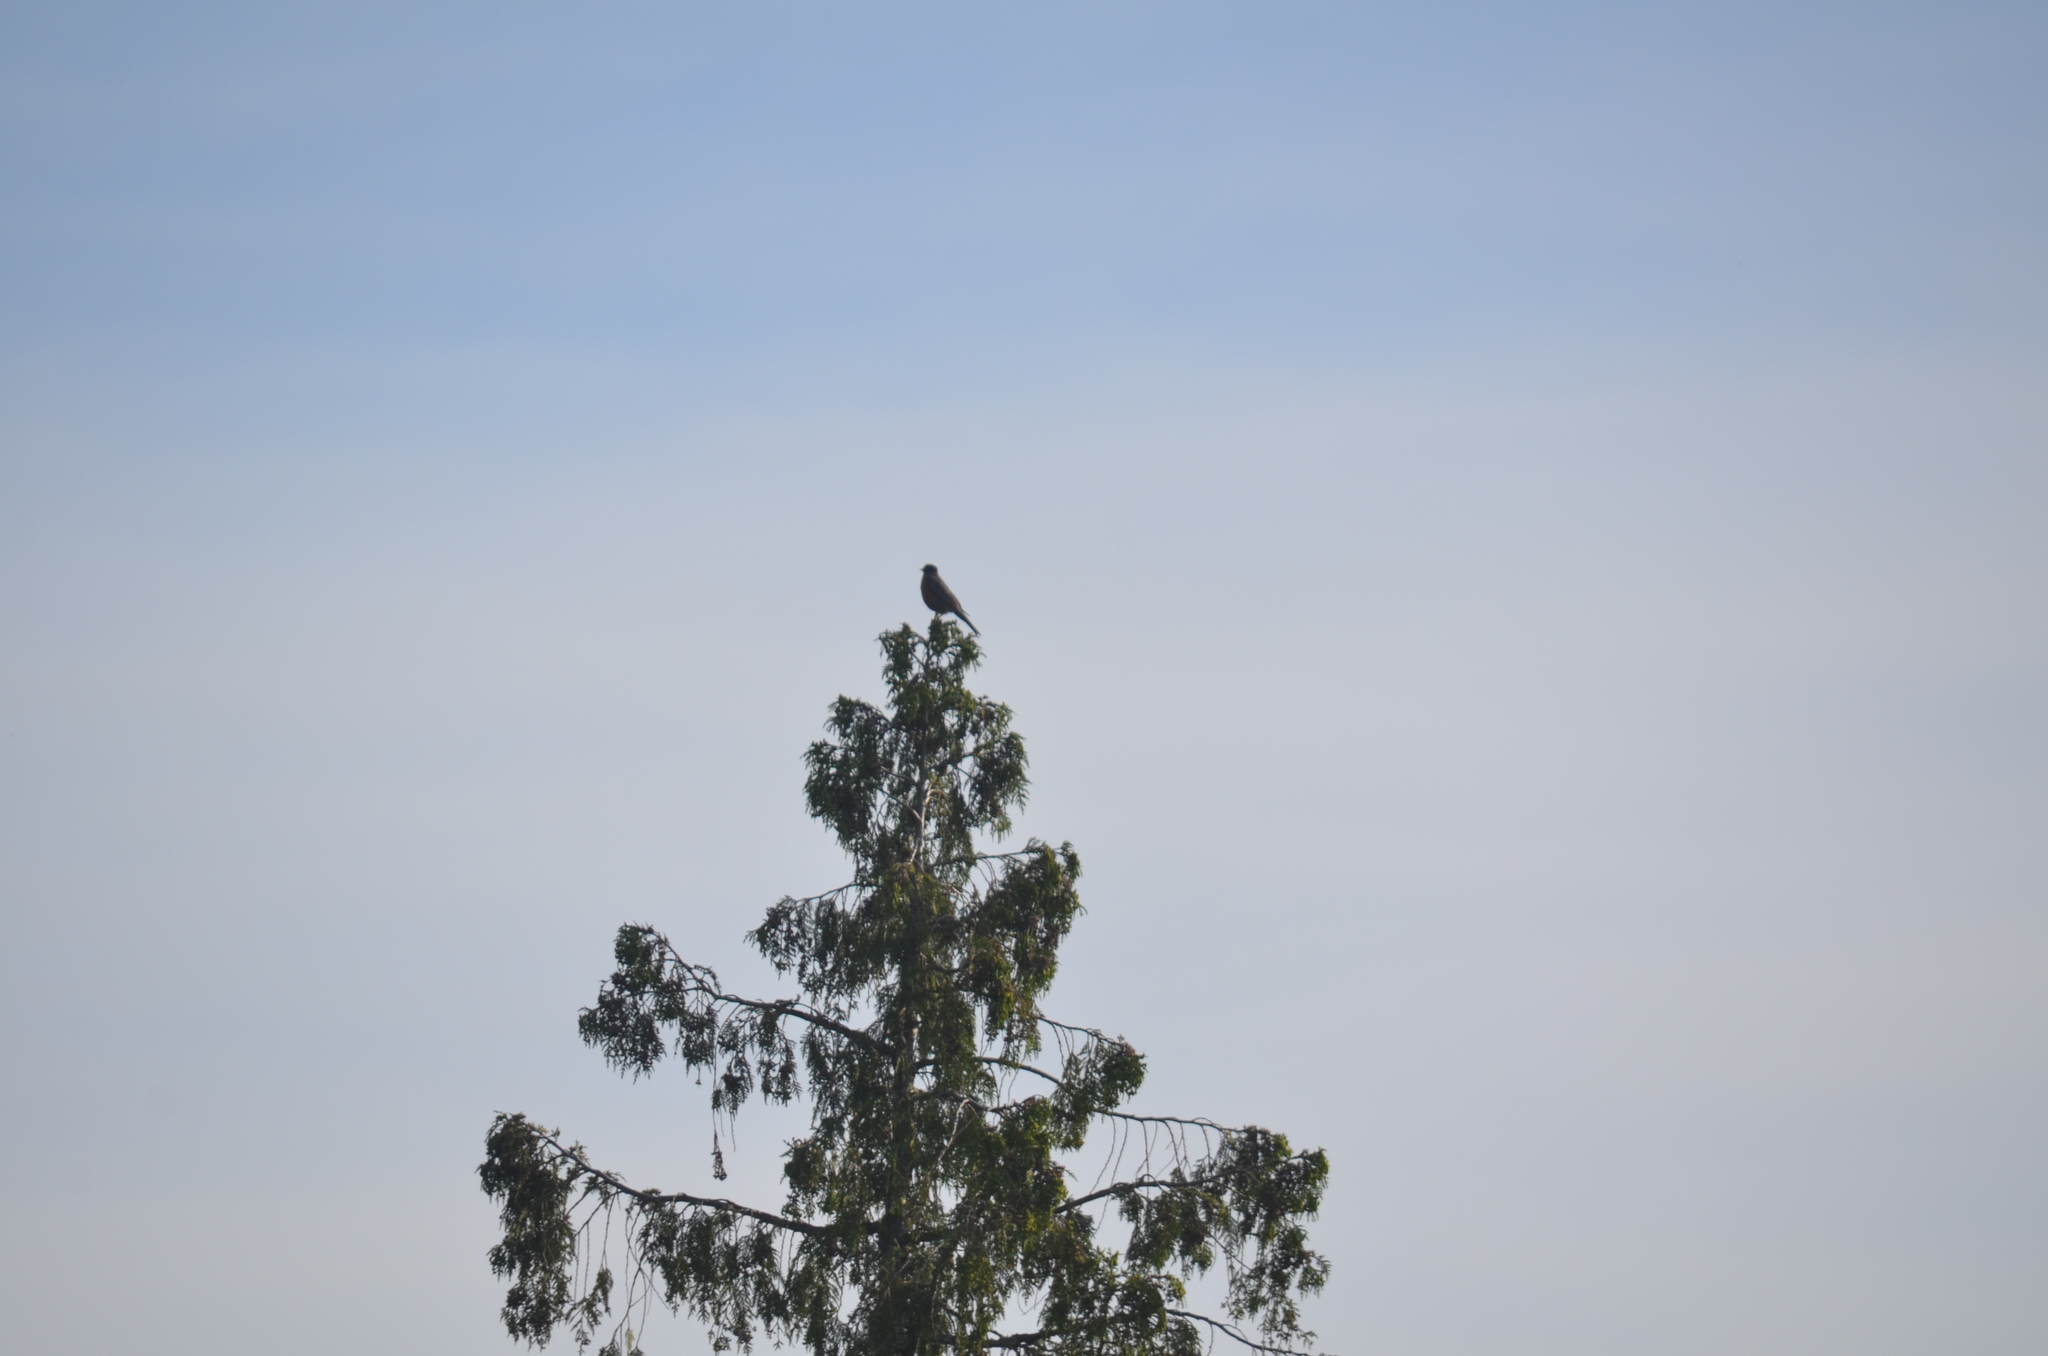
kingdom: Animalia
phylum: Chordata
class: Aves
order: Passeriformes
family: Turdidae
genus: Turdus
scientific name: Turdus migratorius
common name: American robin
